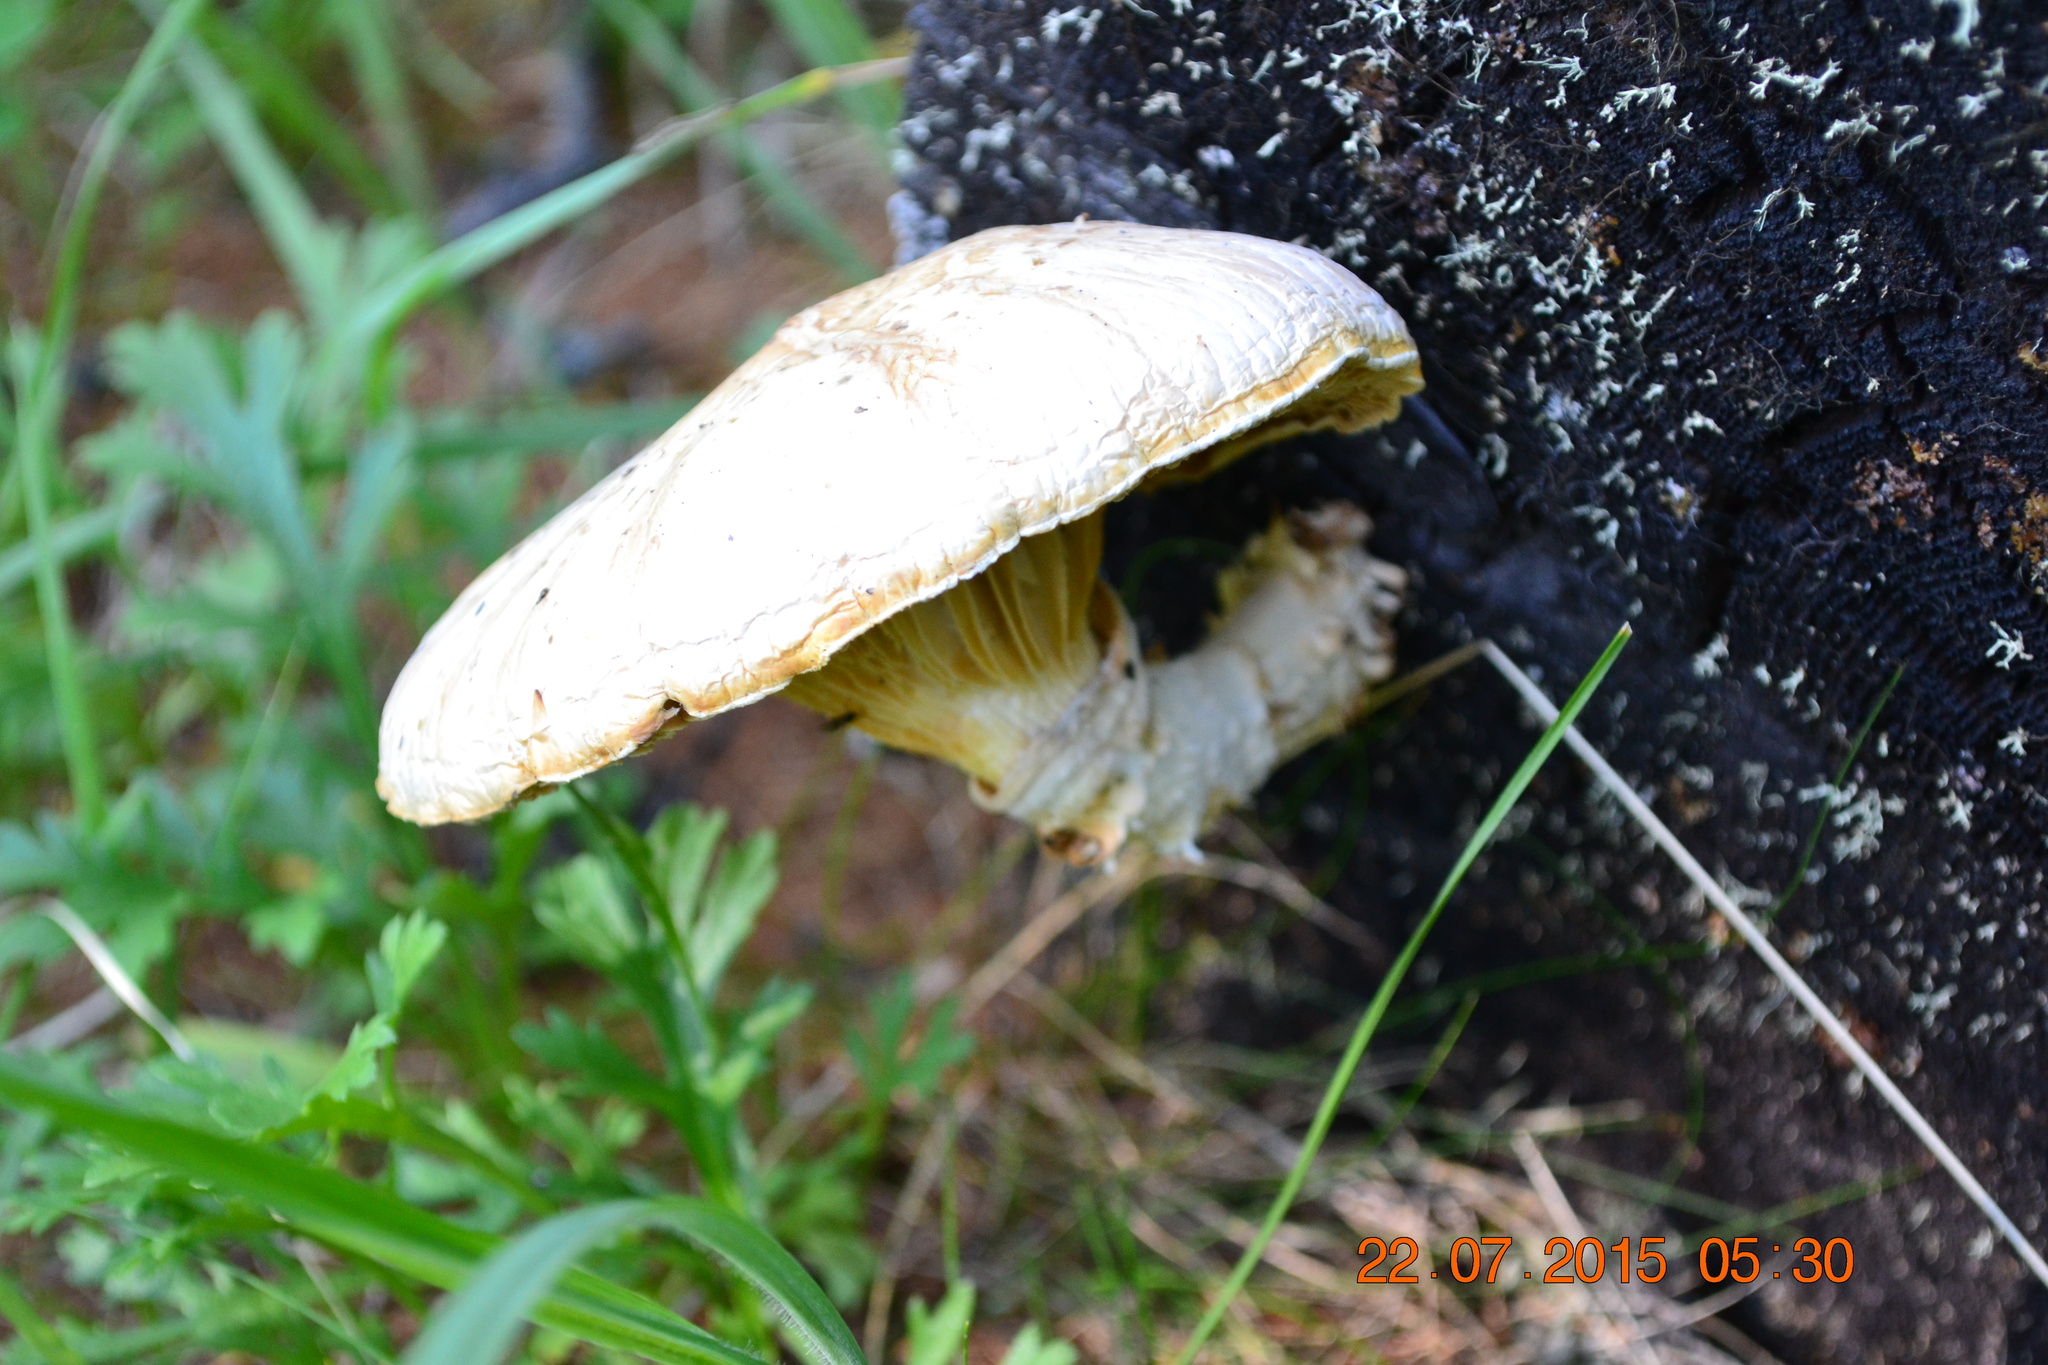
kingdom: Fungi
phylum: Basidiomycota
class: Agaricomycetes
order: Gloeophyllales
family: Gloeophyllaceae
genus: Neolentinus
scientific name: Neolentinus lepideus
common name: Scaly sawgill
